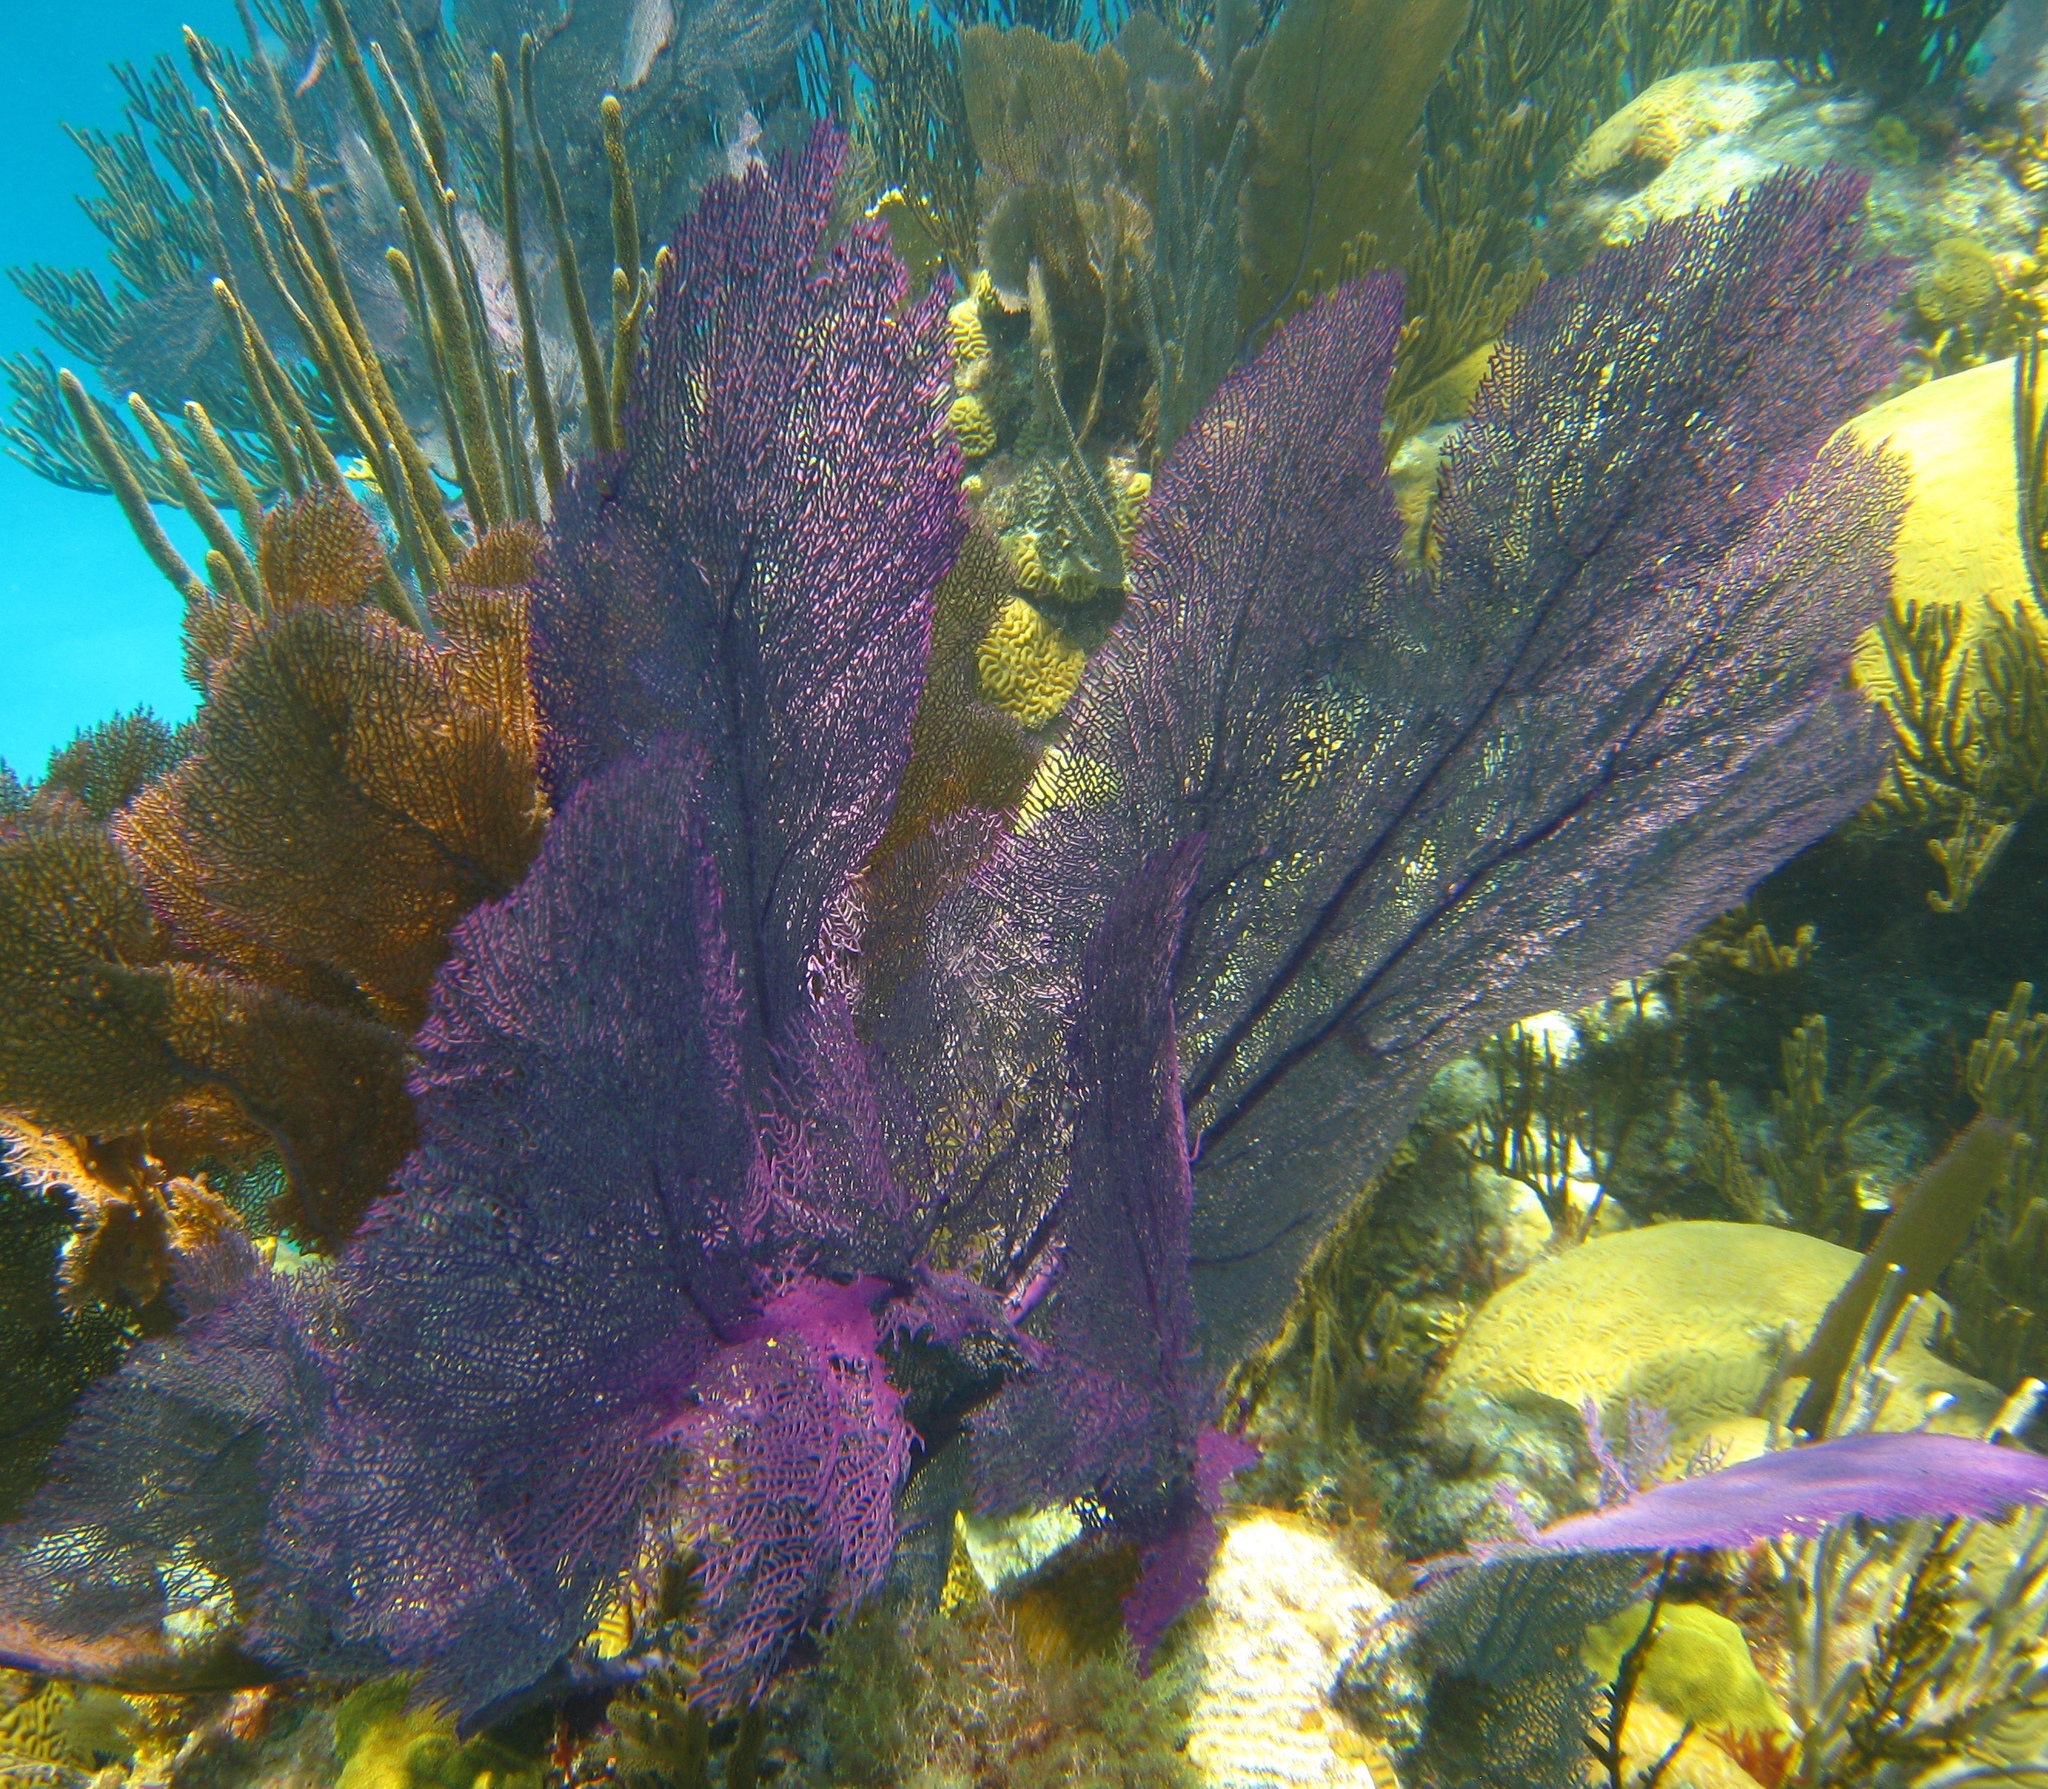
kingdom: Animalia
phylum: Cnidaria
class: Anthozoa
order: Malacalcyonacea
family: Gorgoniidae
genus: Gorgonia
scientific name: Gorgonia ventalina
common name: Common sea fan
